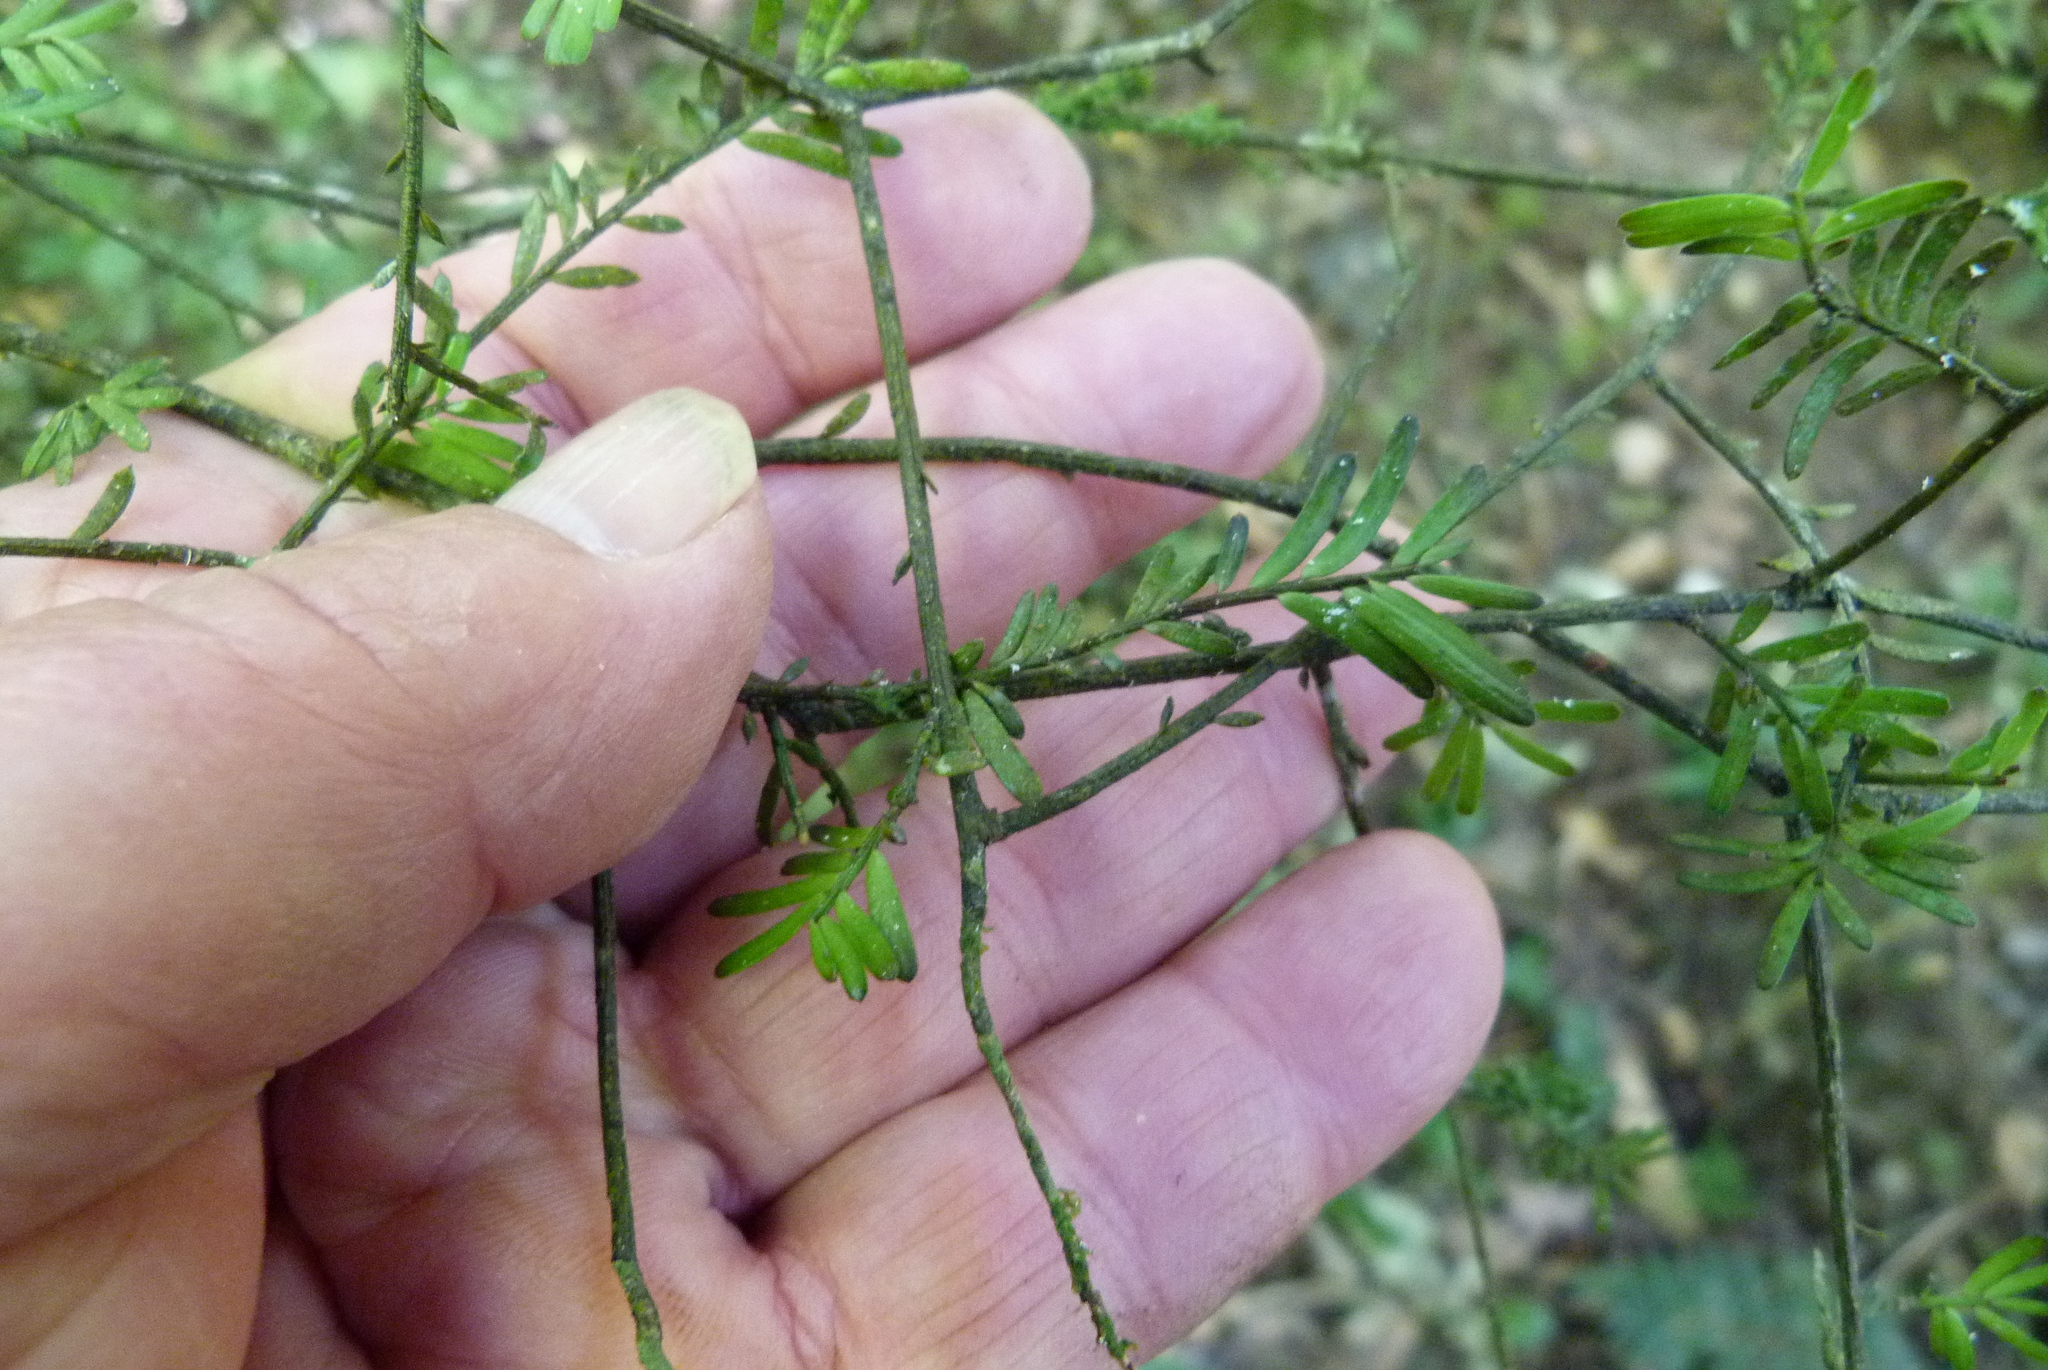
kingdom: Plantae
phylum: Tracheophyta
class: Pinopsida
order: Pinales
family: Podocarpaceae
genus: Prumnopitys
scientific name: Prumnopitys taxifolia
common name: Matai
